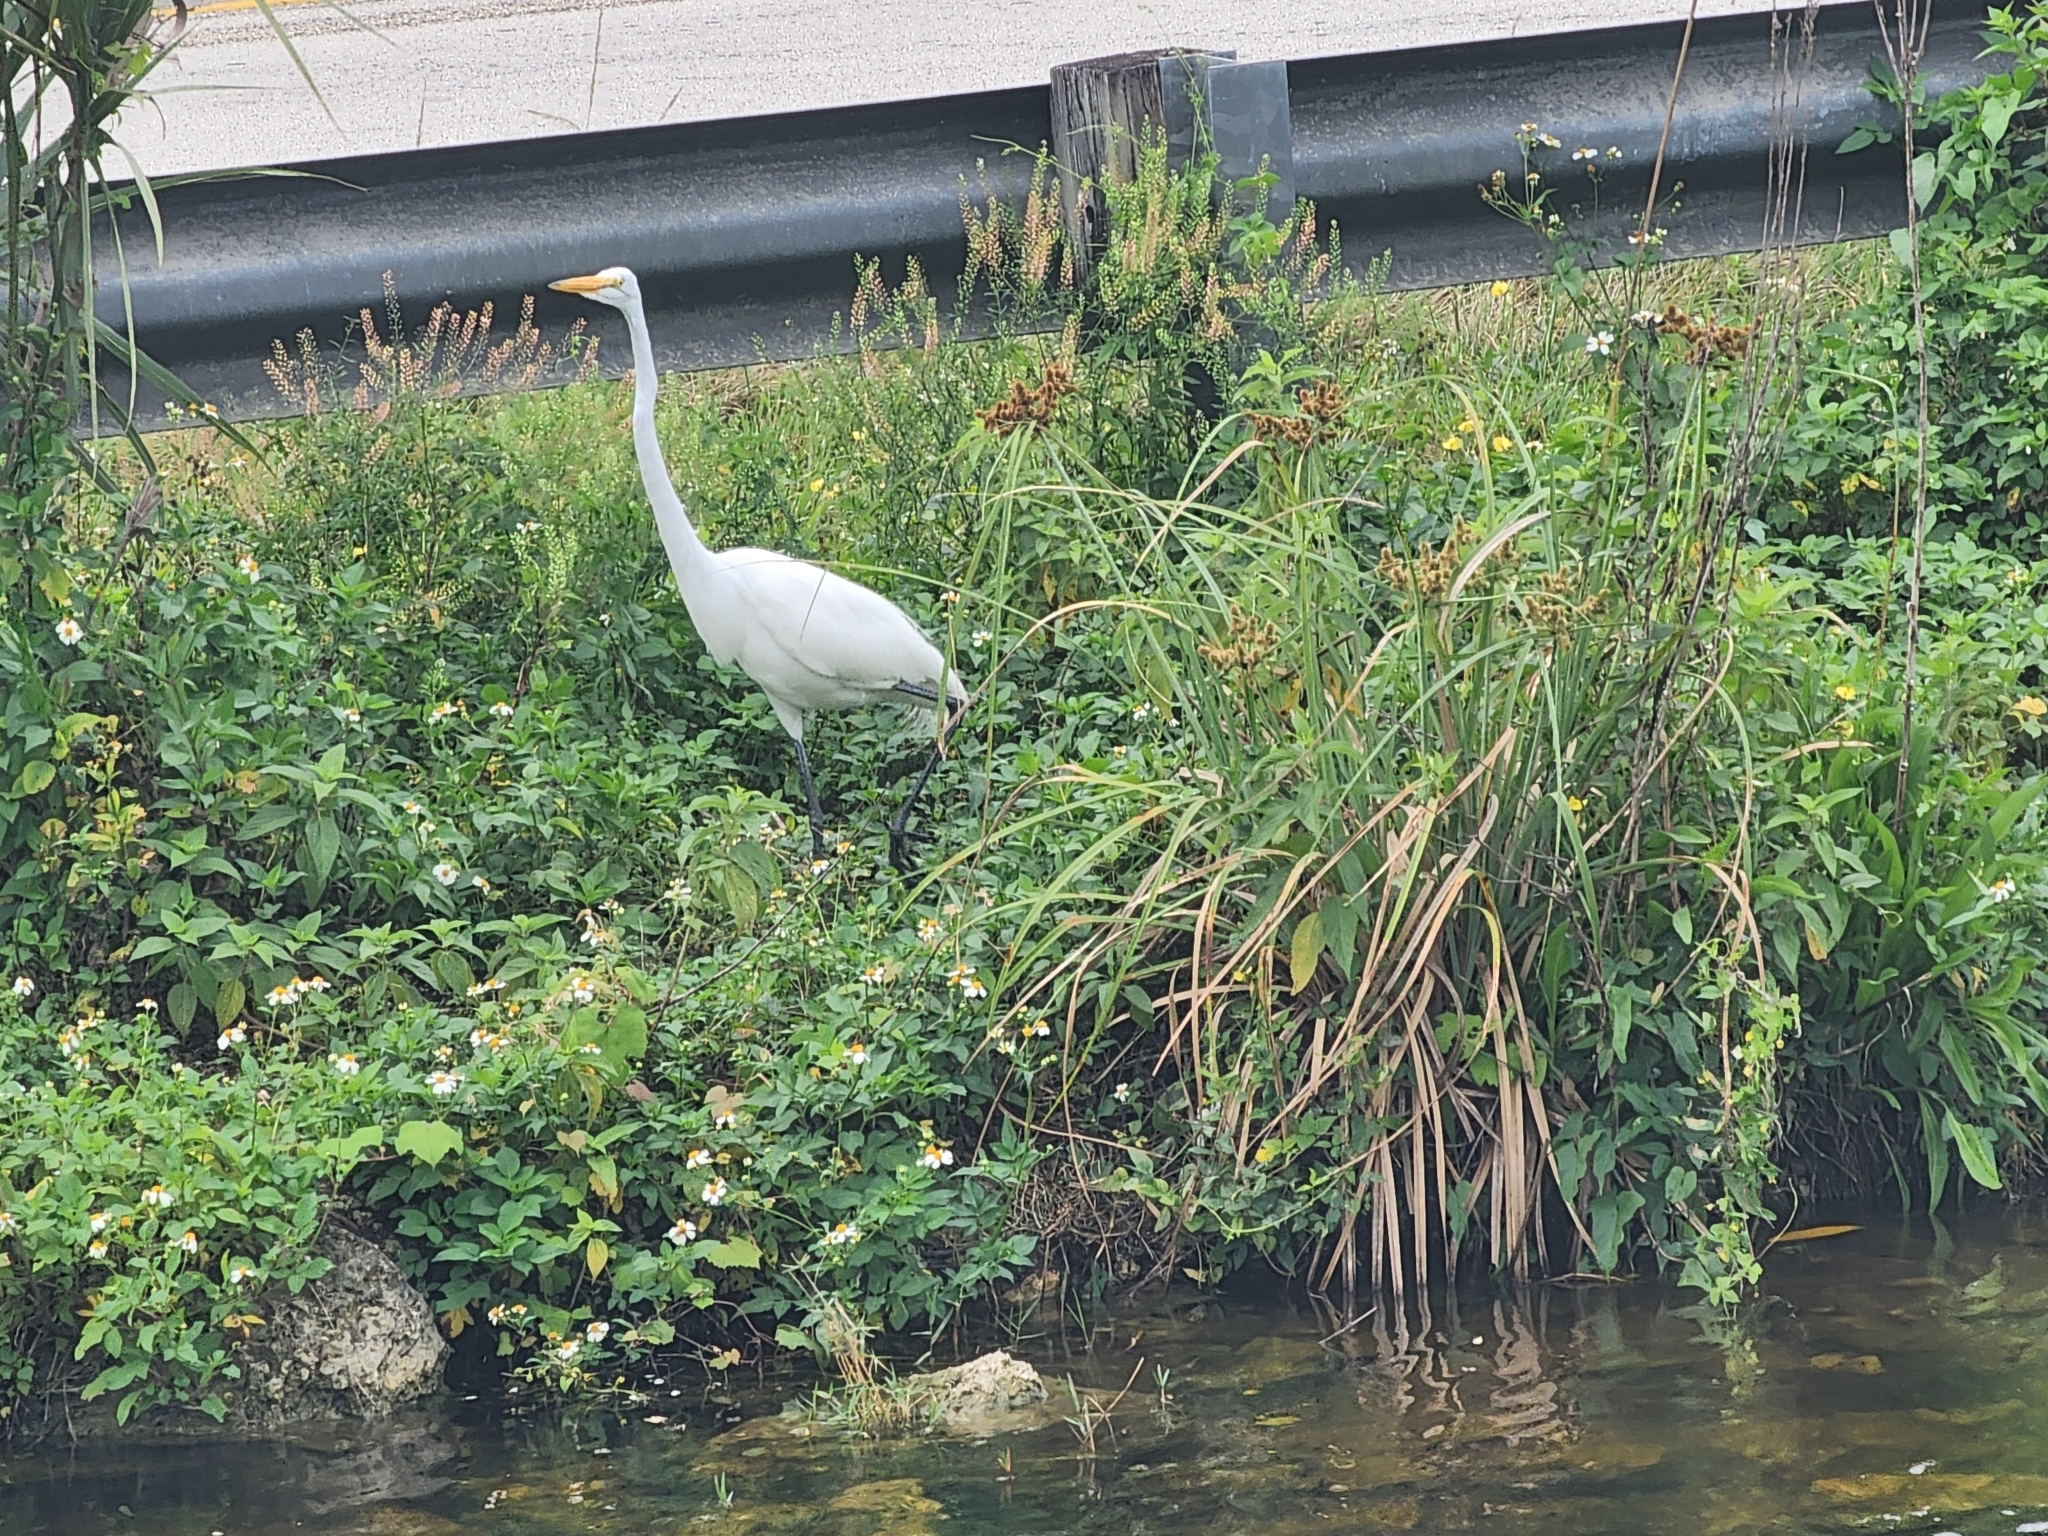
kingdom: Animalia
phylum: Chordata
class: Aves
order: Pelecaniformes
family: Ardeidae
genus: Ardea
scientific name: Ardea alba
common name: Great egret
